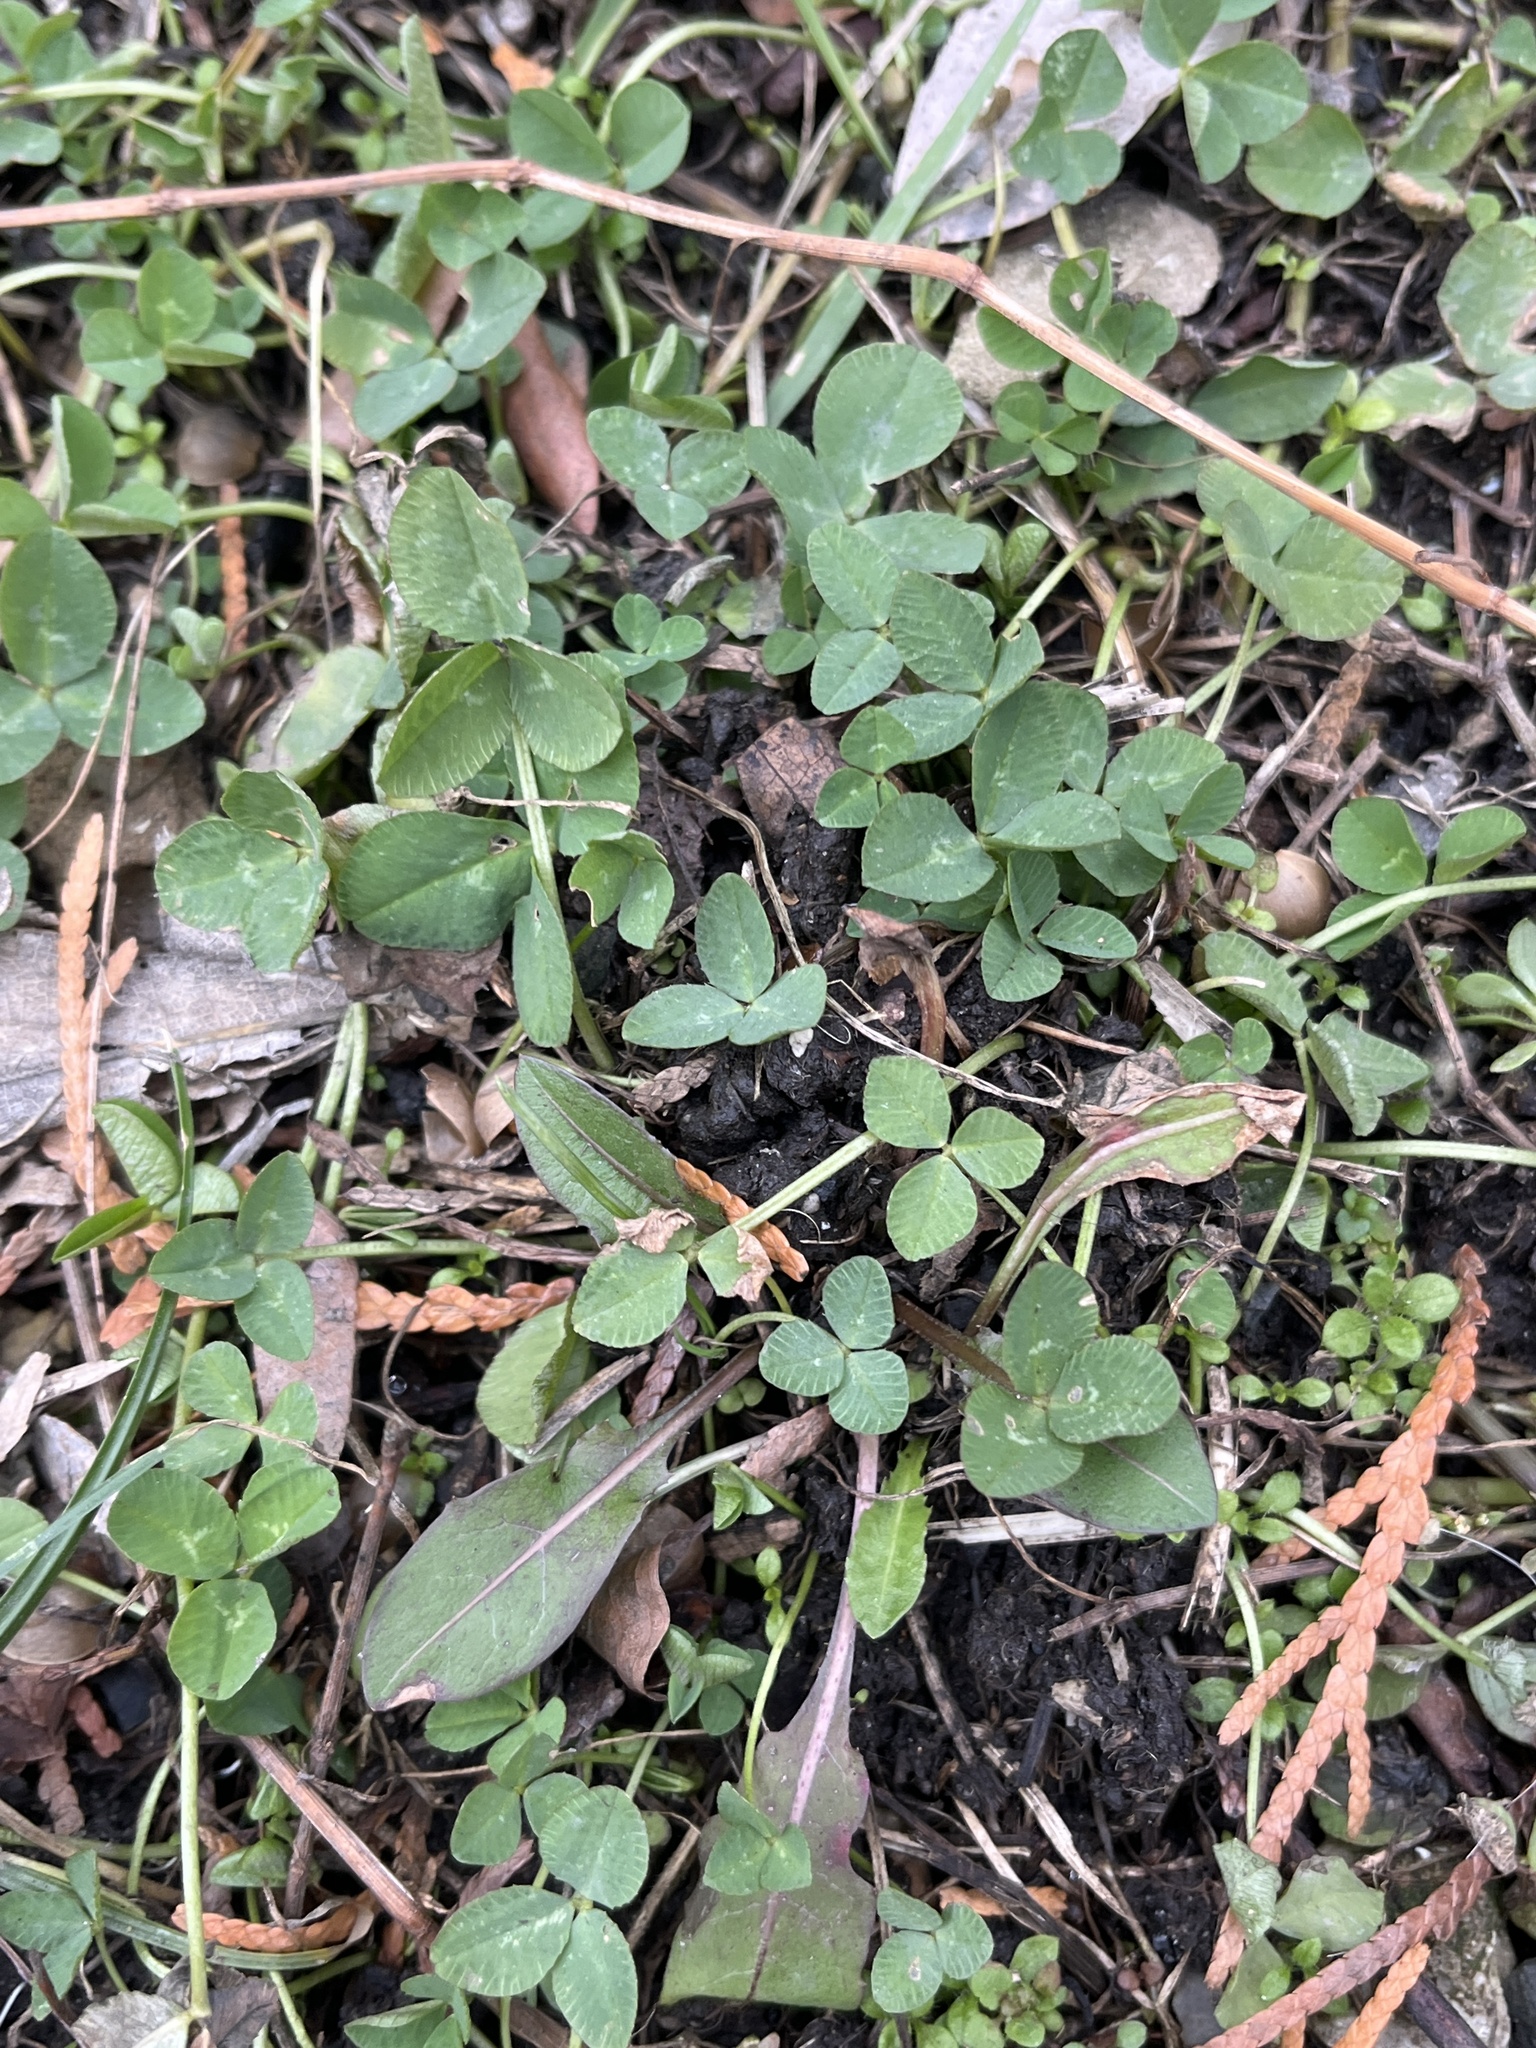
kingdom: Plantae
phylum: Tracheophyta
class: Magnoliopsida
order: Fabales
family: Fabaceae
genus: Trifolium
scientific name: Trifolium repens
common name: White clover
